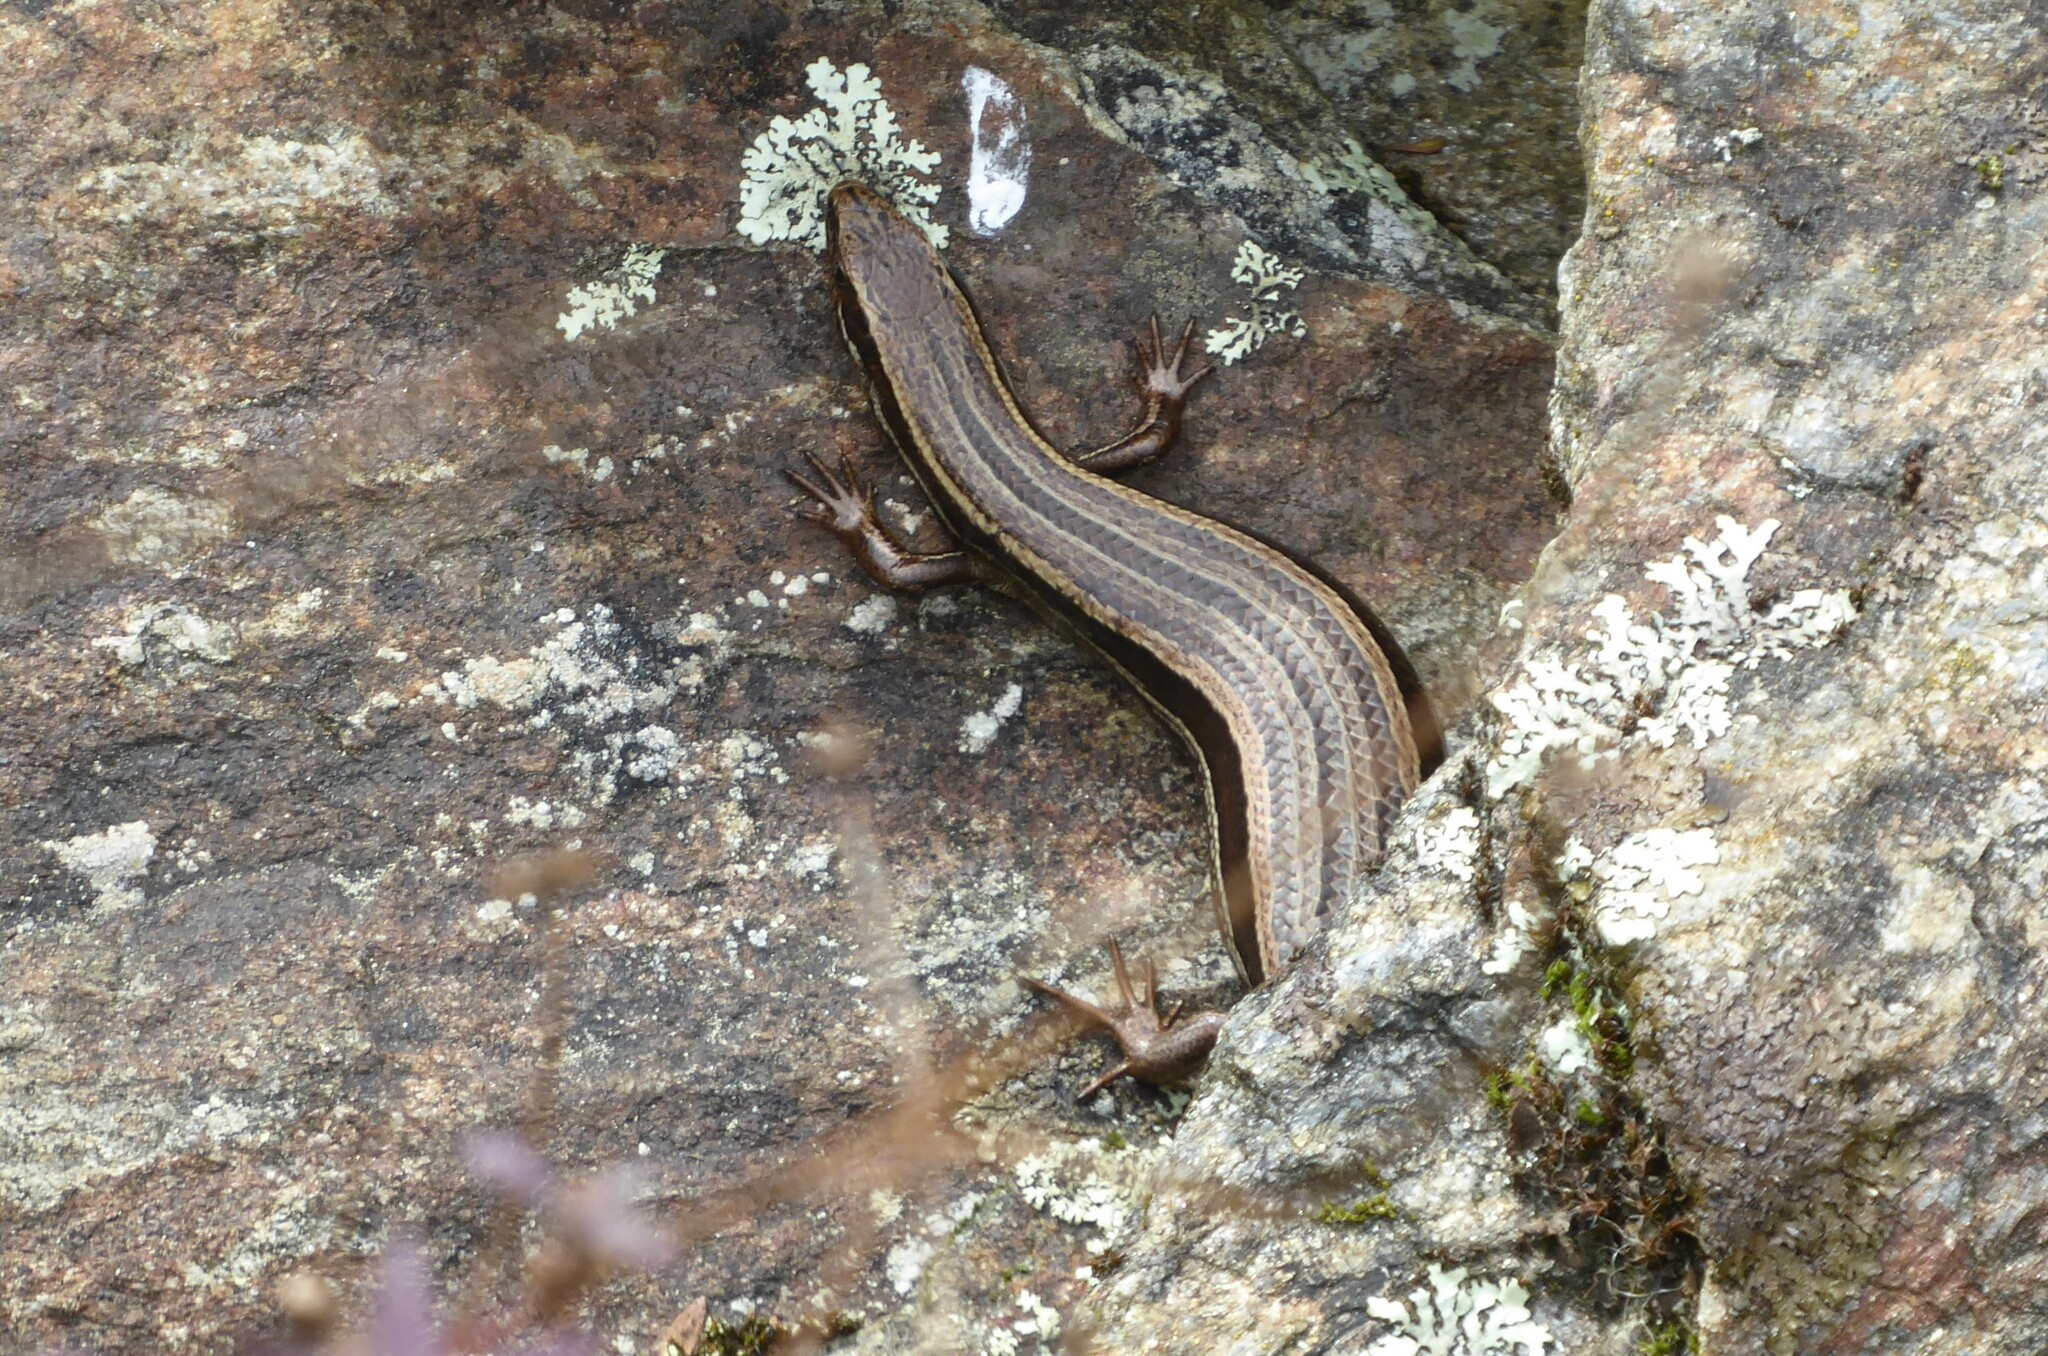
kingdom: Animalia
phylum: Chordata
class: Squamata
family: Scincidae
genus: Oligosoma
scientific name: Oligosoma polychroma
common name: Common new zealand skink
